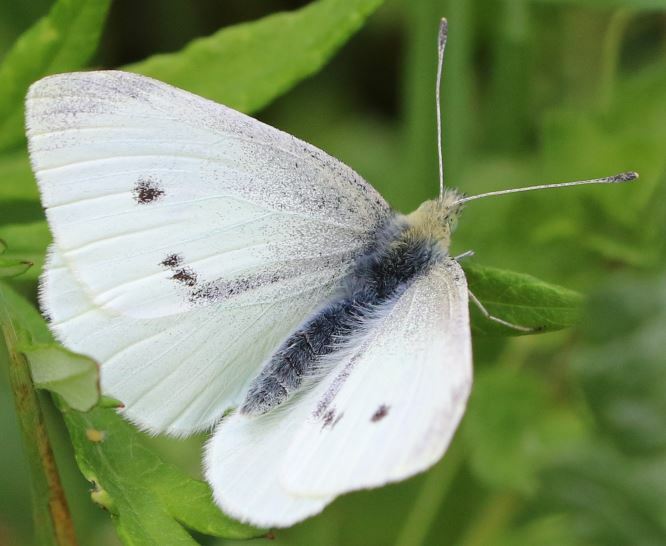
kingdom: Animalia
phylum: Arthropoda
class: Insecta
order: Lepidoptera
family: Pieridae
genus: Pieris
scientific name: Pieris rapae
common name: Small white
